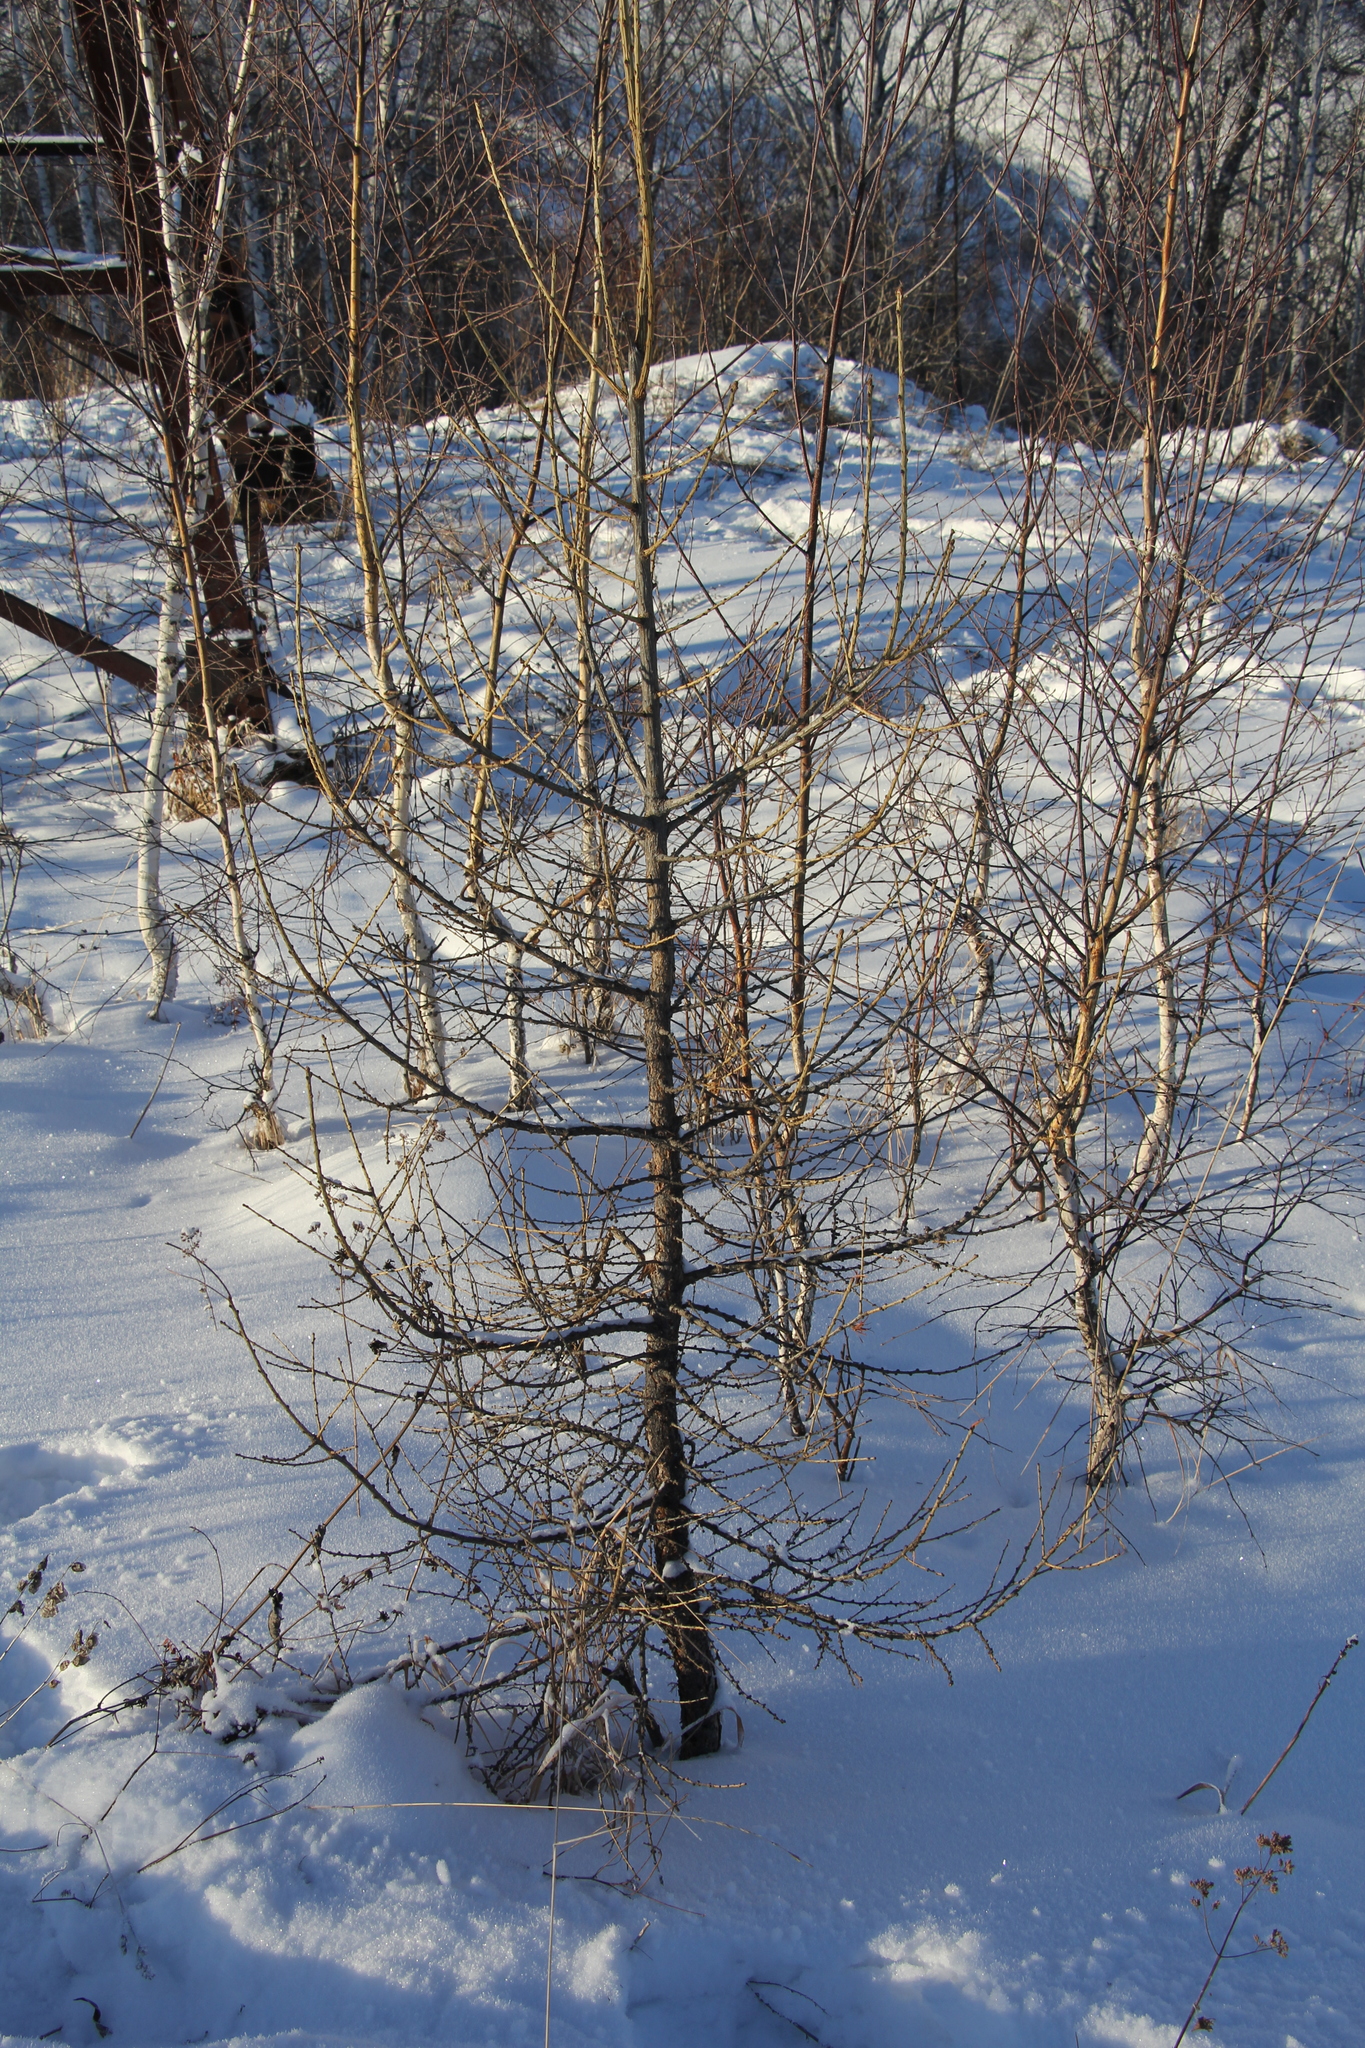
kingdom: Plantae
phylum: Tracheophyta
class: Pinopsida
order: Pinales
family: Pinaceae
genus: Larix
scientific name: Larix sibirica
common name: Siberian larch
